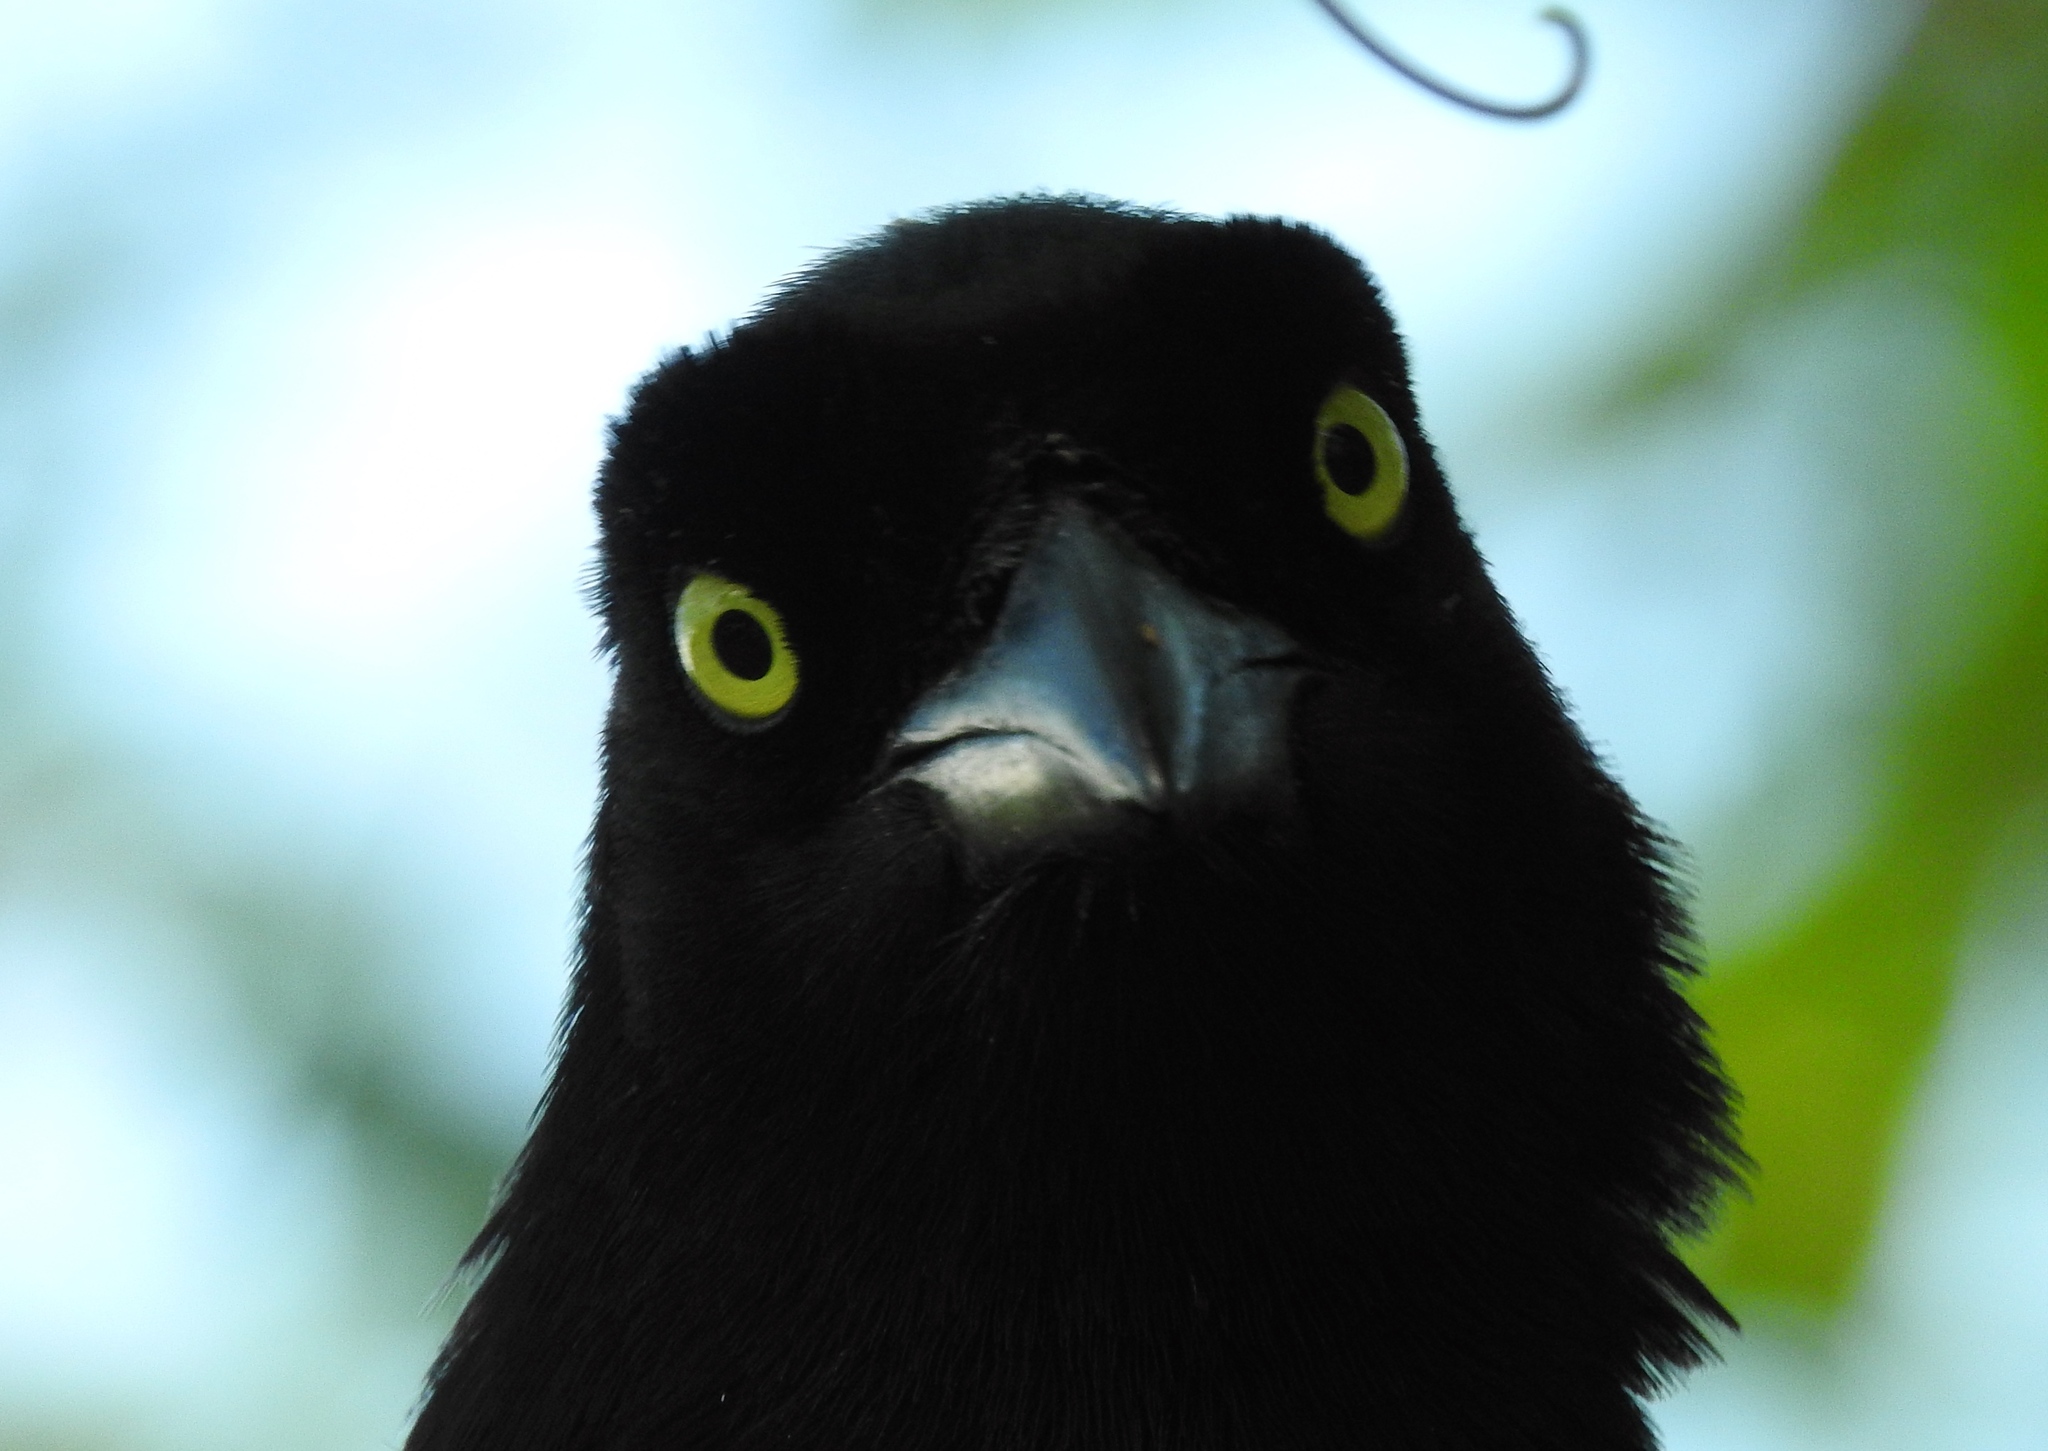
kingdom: Animalia
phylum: Chordata
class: Aves
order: Passeriformes
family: Corvidae
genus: Cyanocorax
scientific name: Cyanocorax beecheii
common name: Purplish-backed jay
